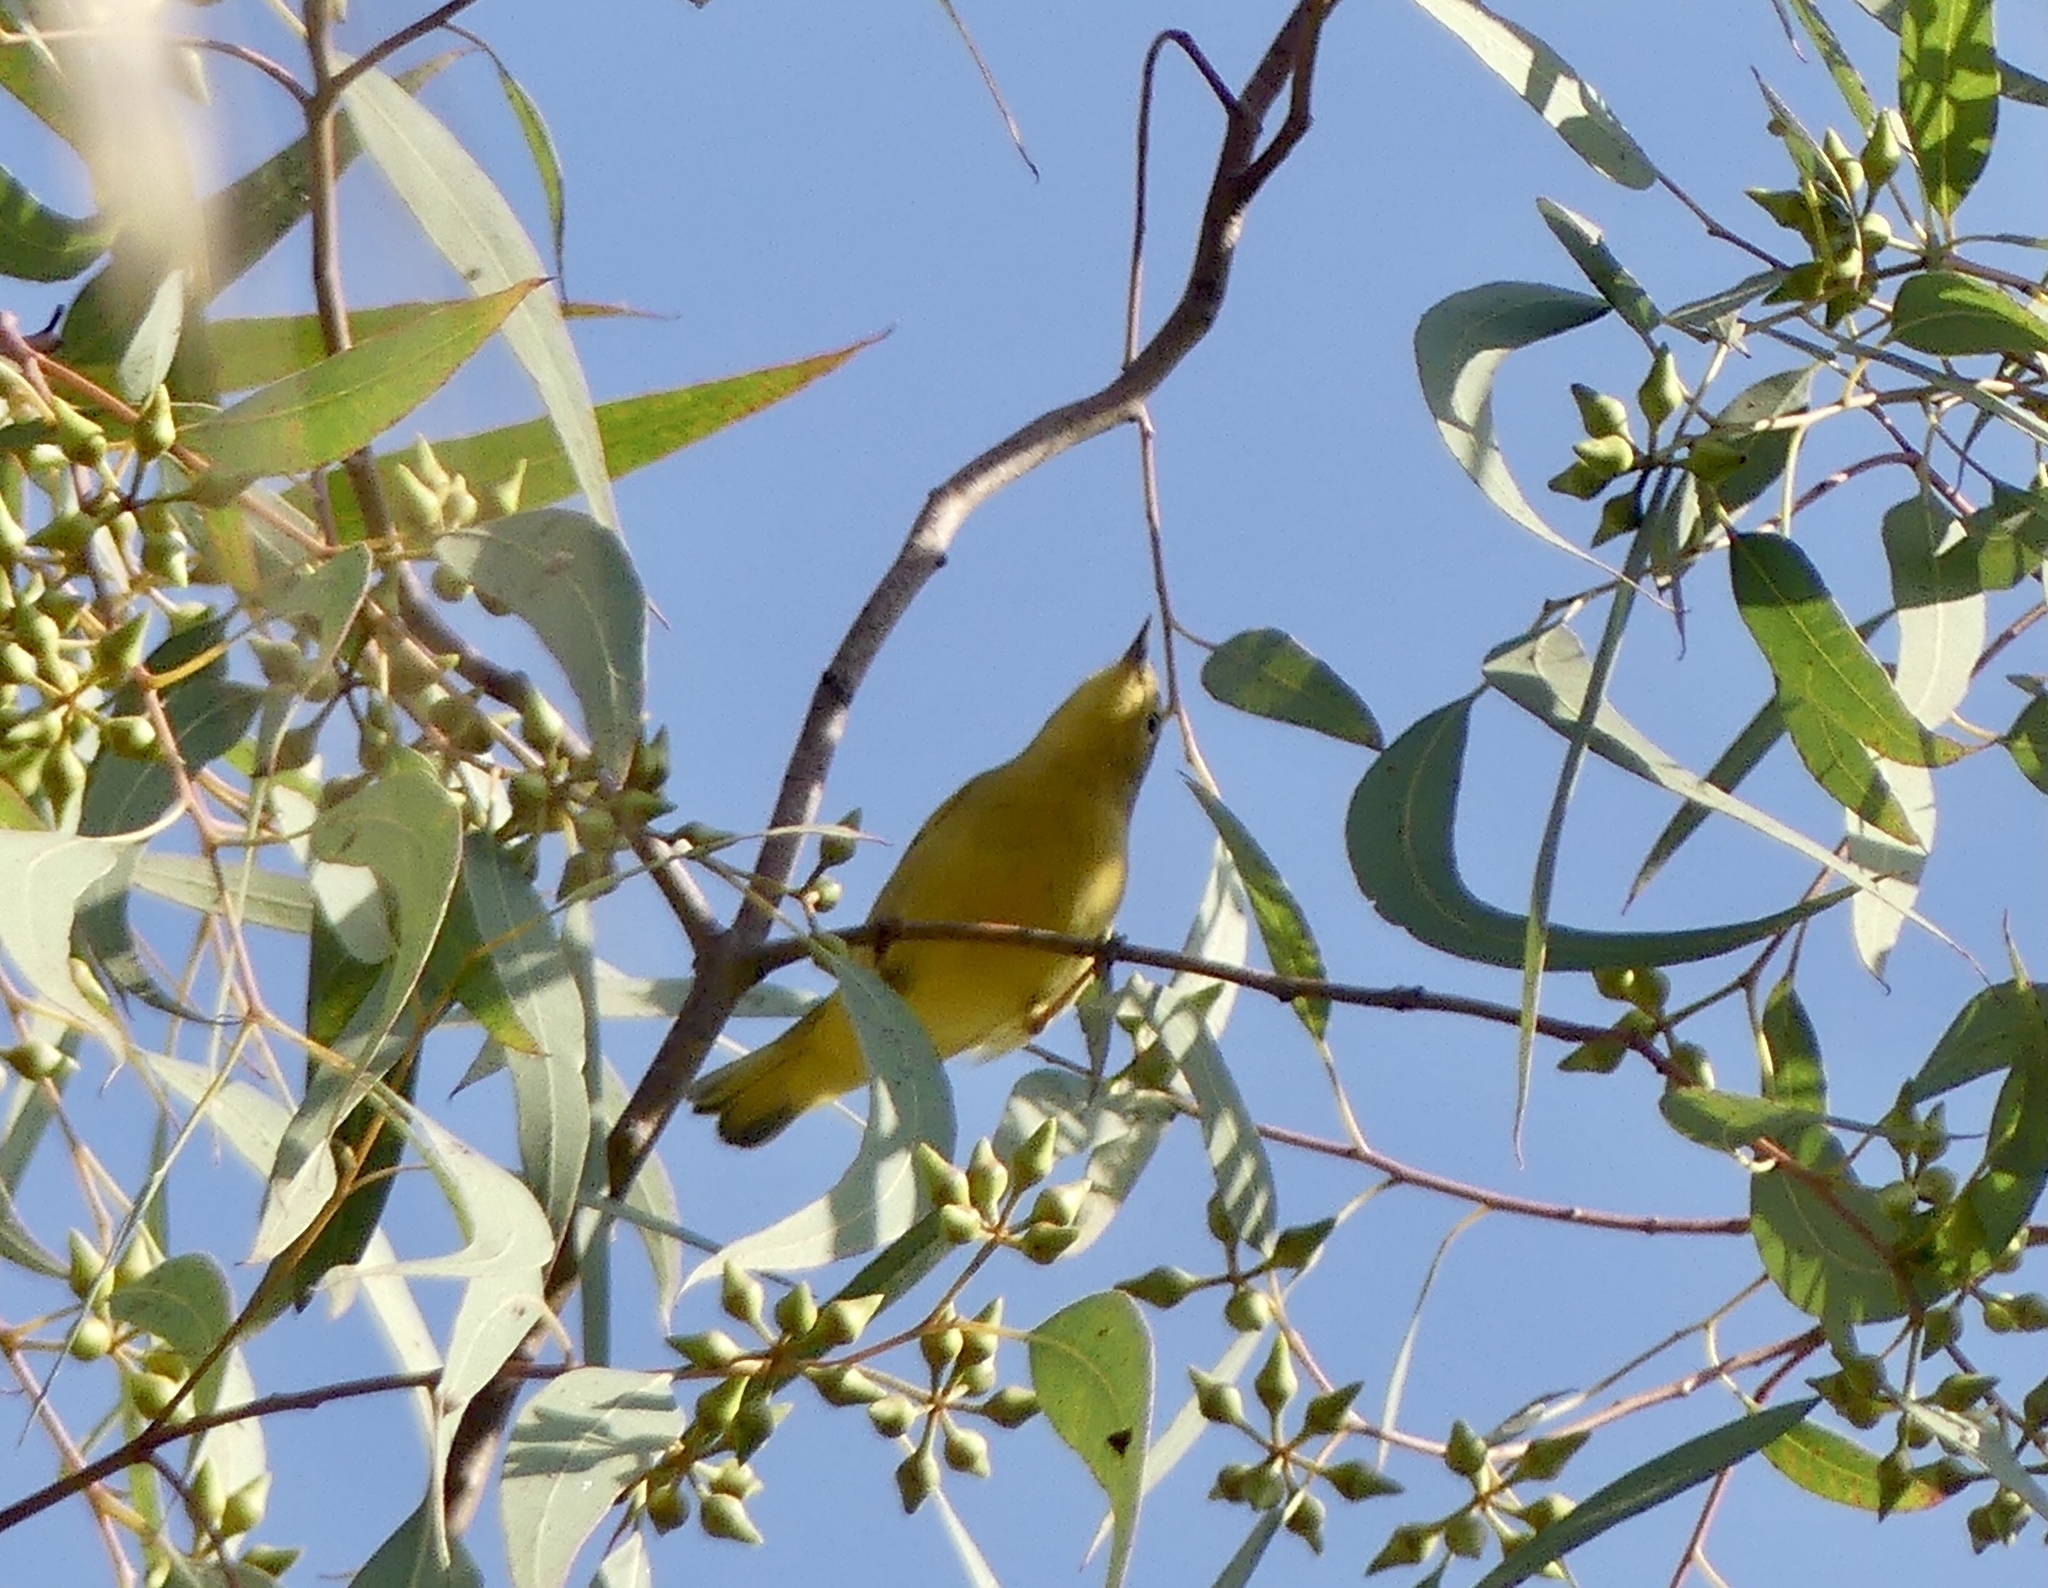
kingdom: Animalia
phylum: Chordata
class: Aves
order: Passeriformes
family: Parulidae
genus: Setophaga
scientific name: Setophaga petechia
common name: Yellow warbler
